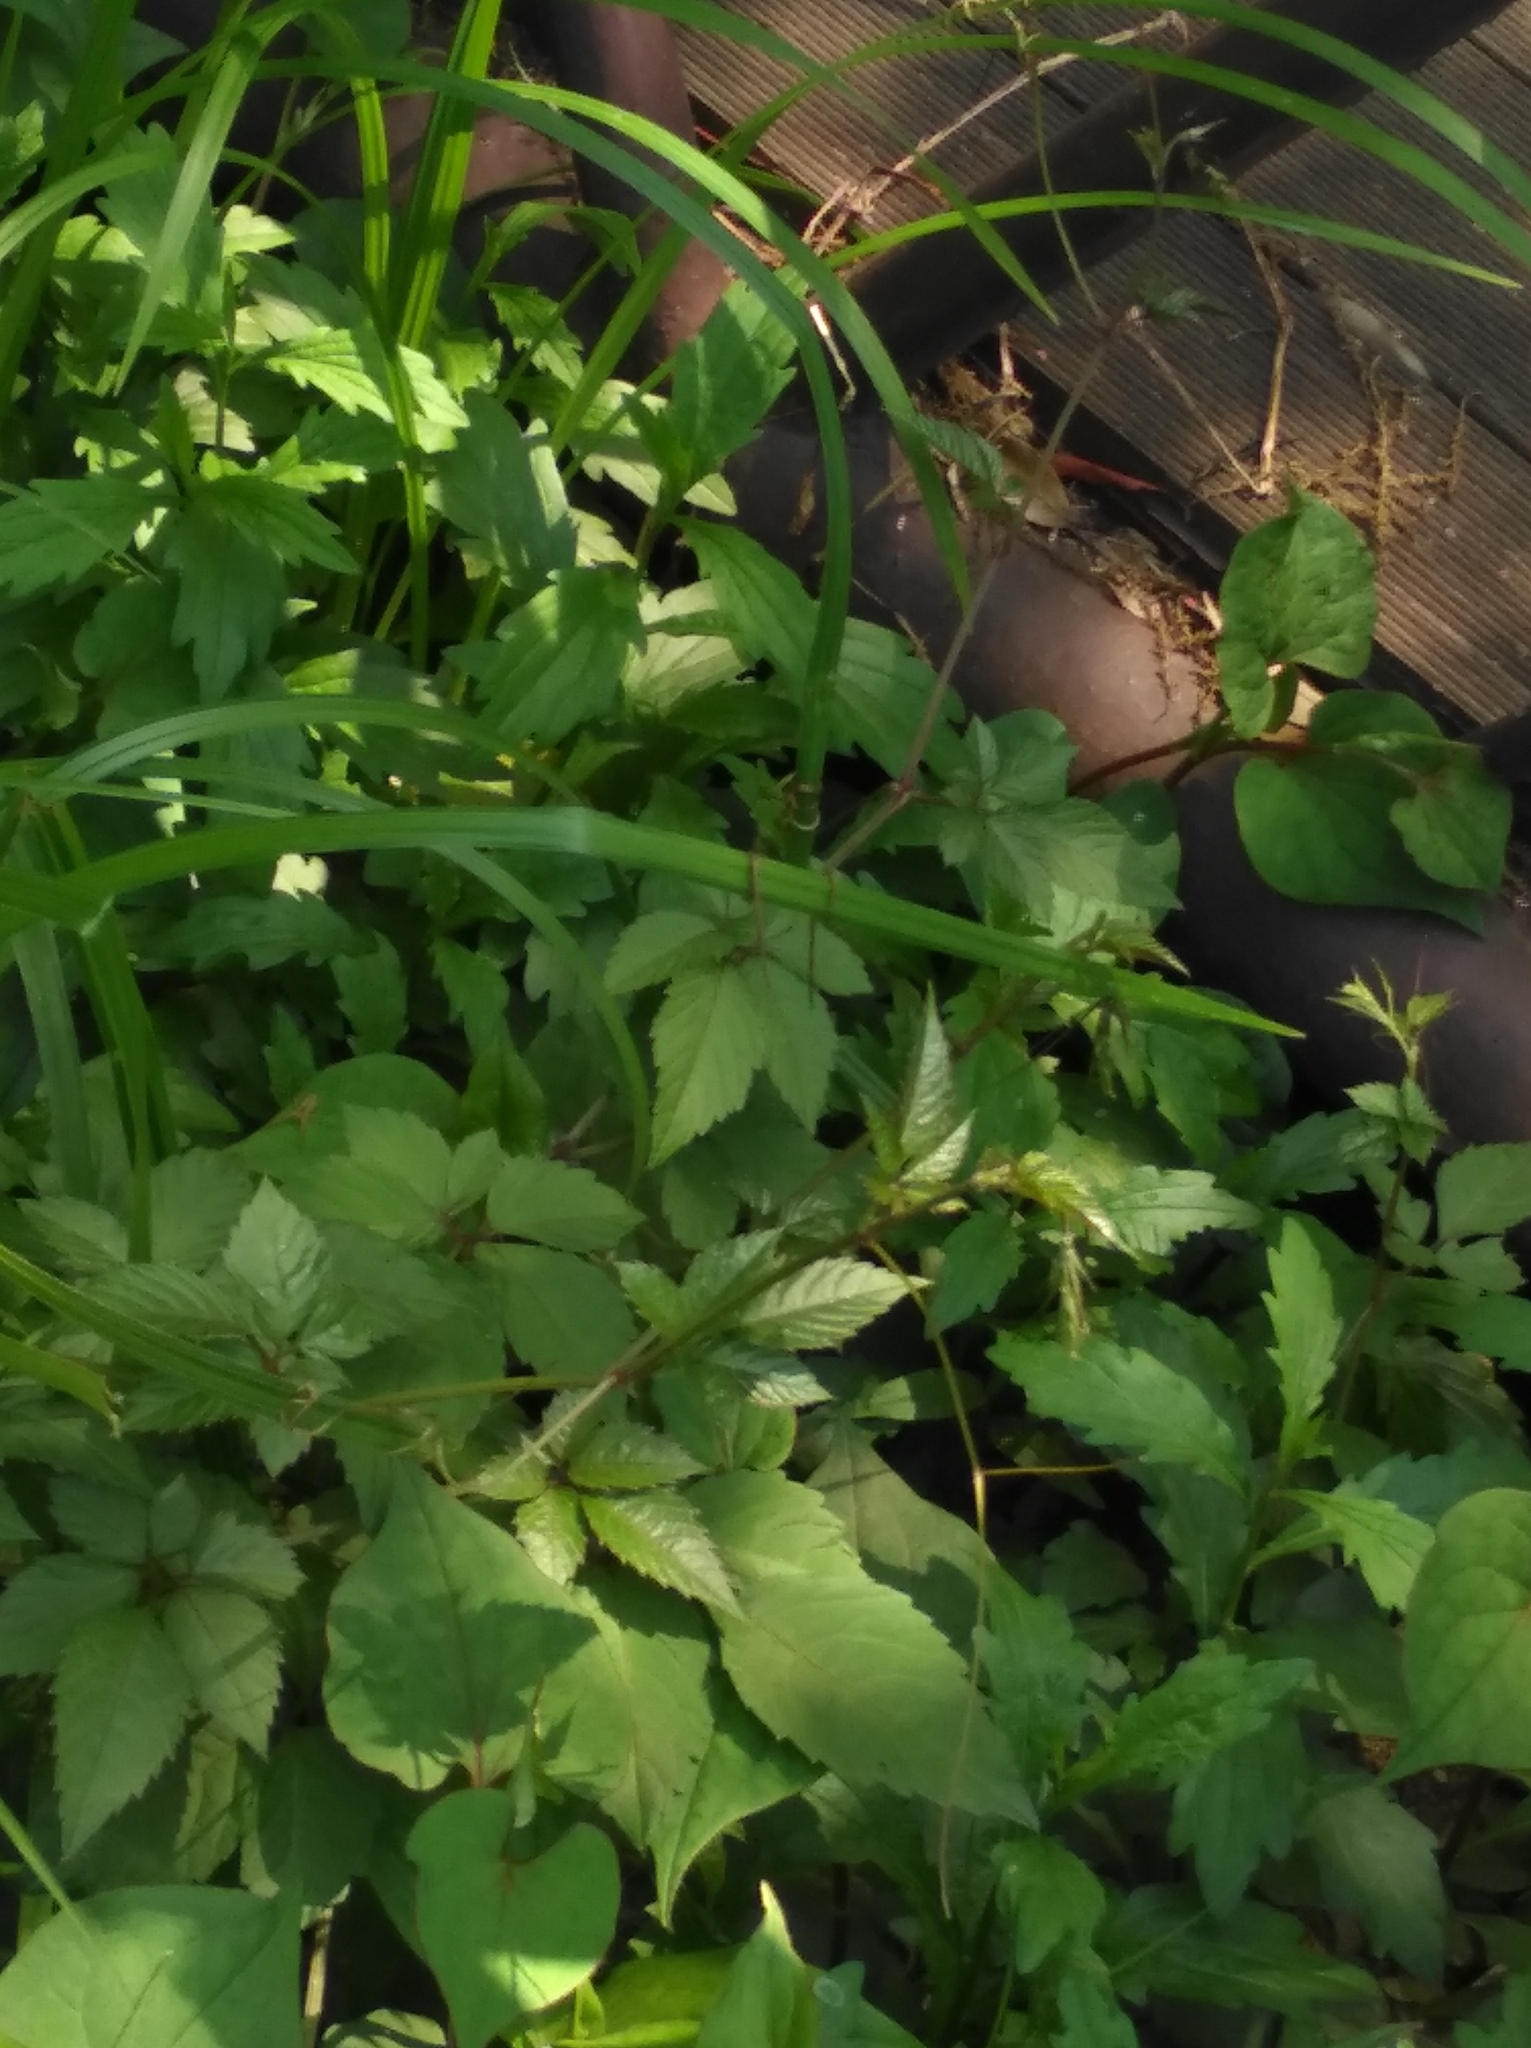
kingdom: Plantae
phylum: Tracheophyta
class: Magnoliopsida
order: Vitales
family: Vitaceae
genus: Causonis
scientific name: Causonis japonica
